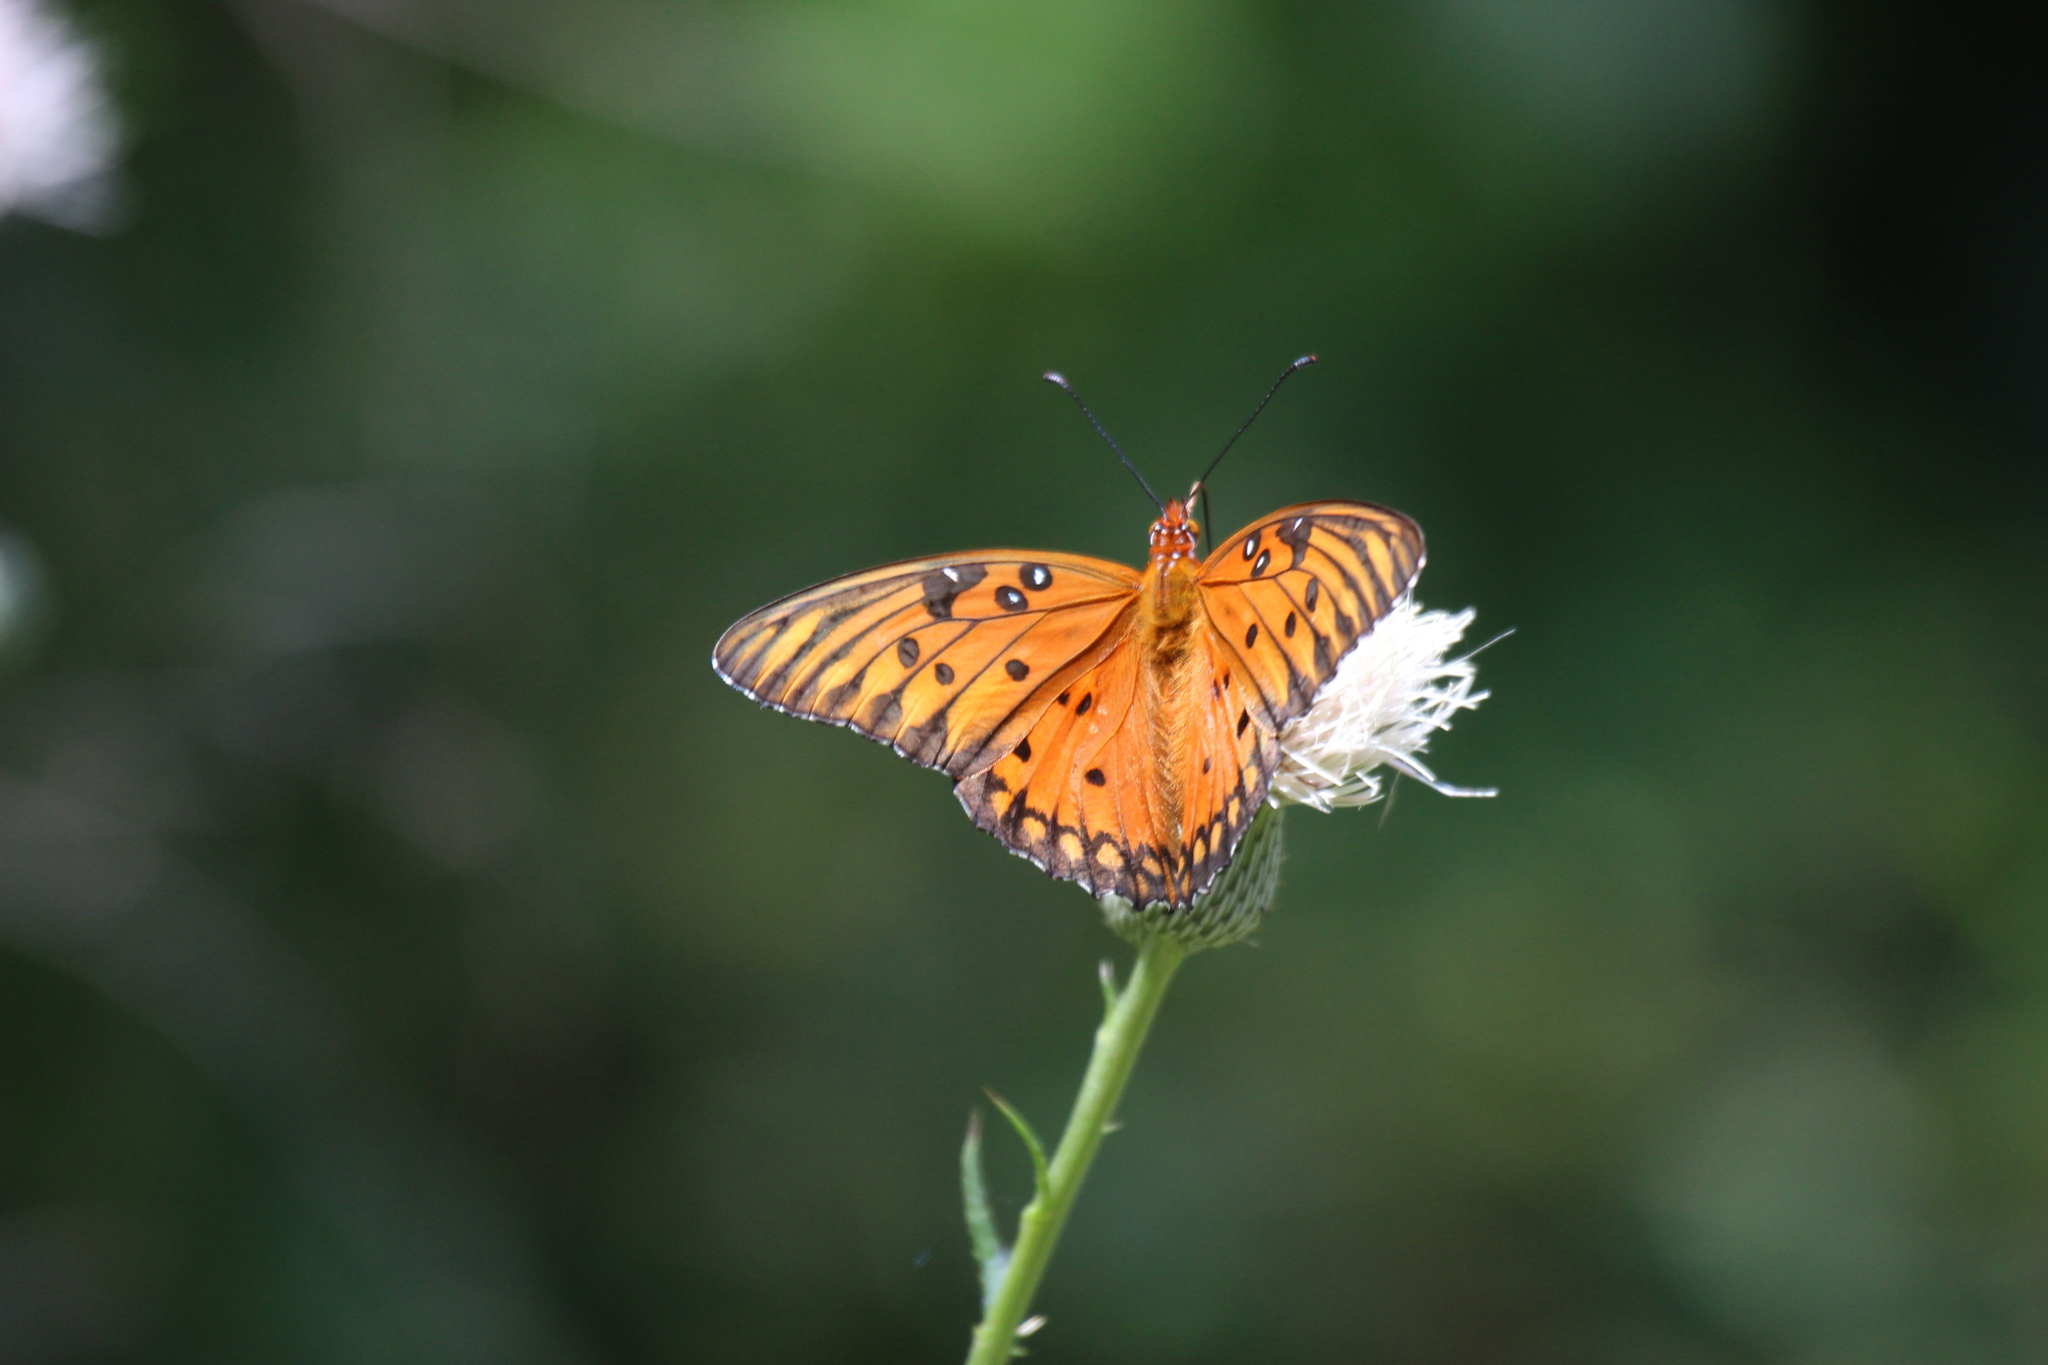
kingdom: Animalia
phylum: Arthropoda
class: Insecta
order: Lepidoptera
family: Nymphalidae
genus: Dione
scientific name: Dione vanillae
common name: Gulf fritillary
